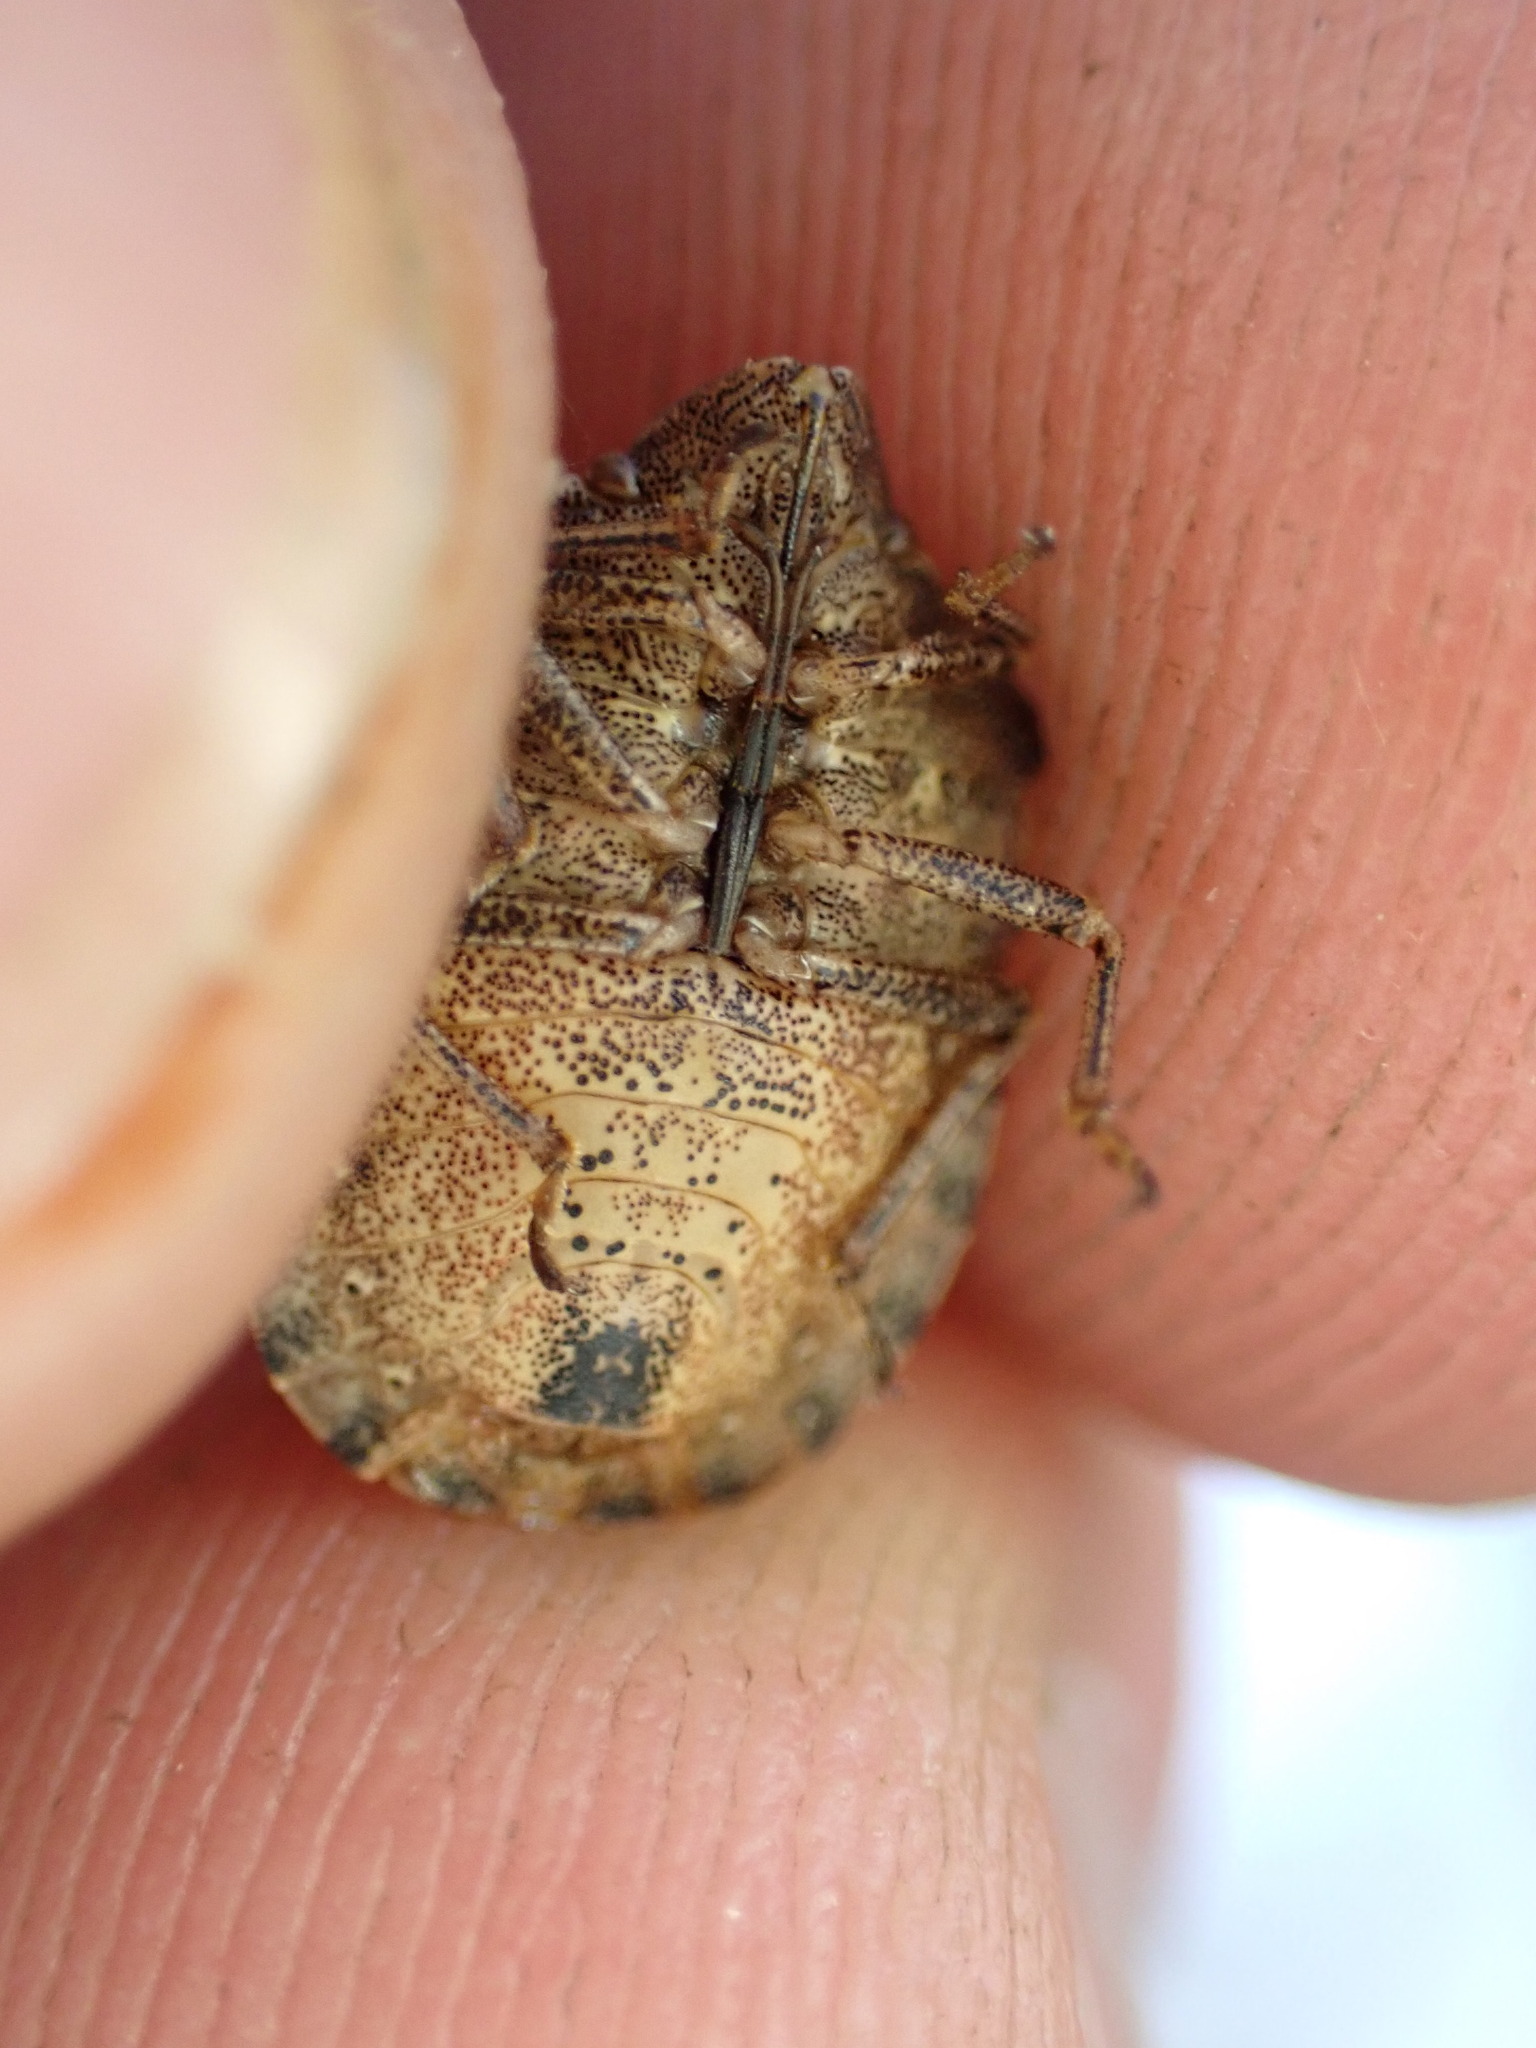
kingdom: Animalia
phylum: Arthropoda
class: Insecta
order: Hemiptera
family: Scutelleridae
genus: Eurygaster
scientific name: Eurygaster testudinaria
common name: Tortoise bug
